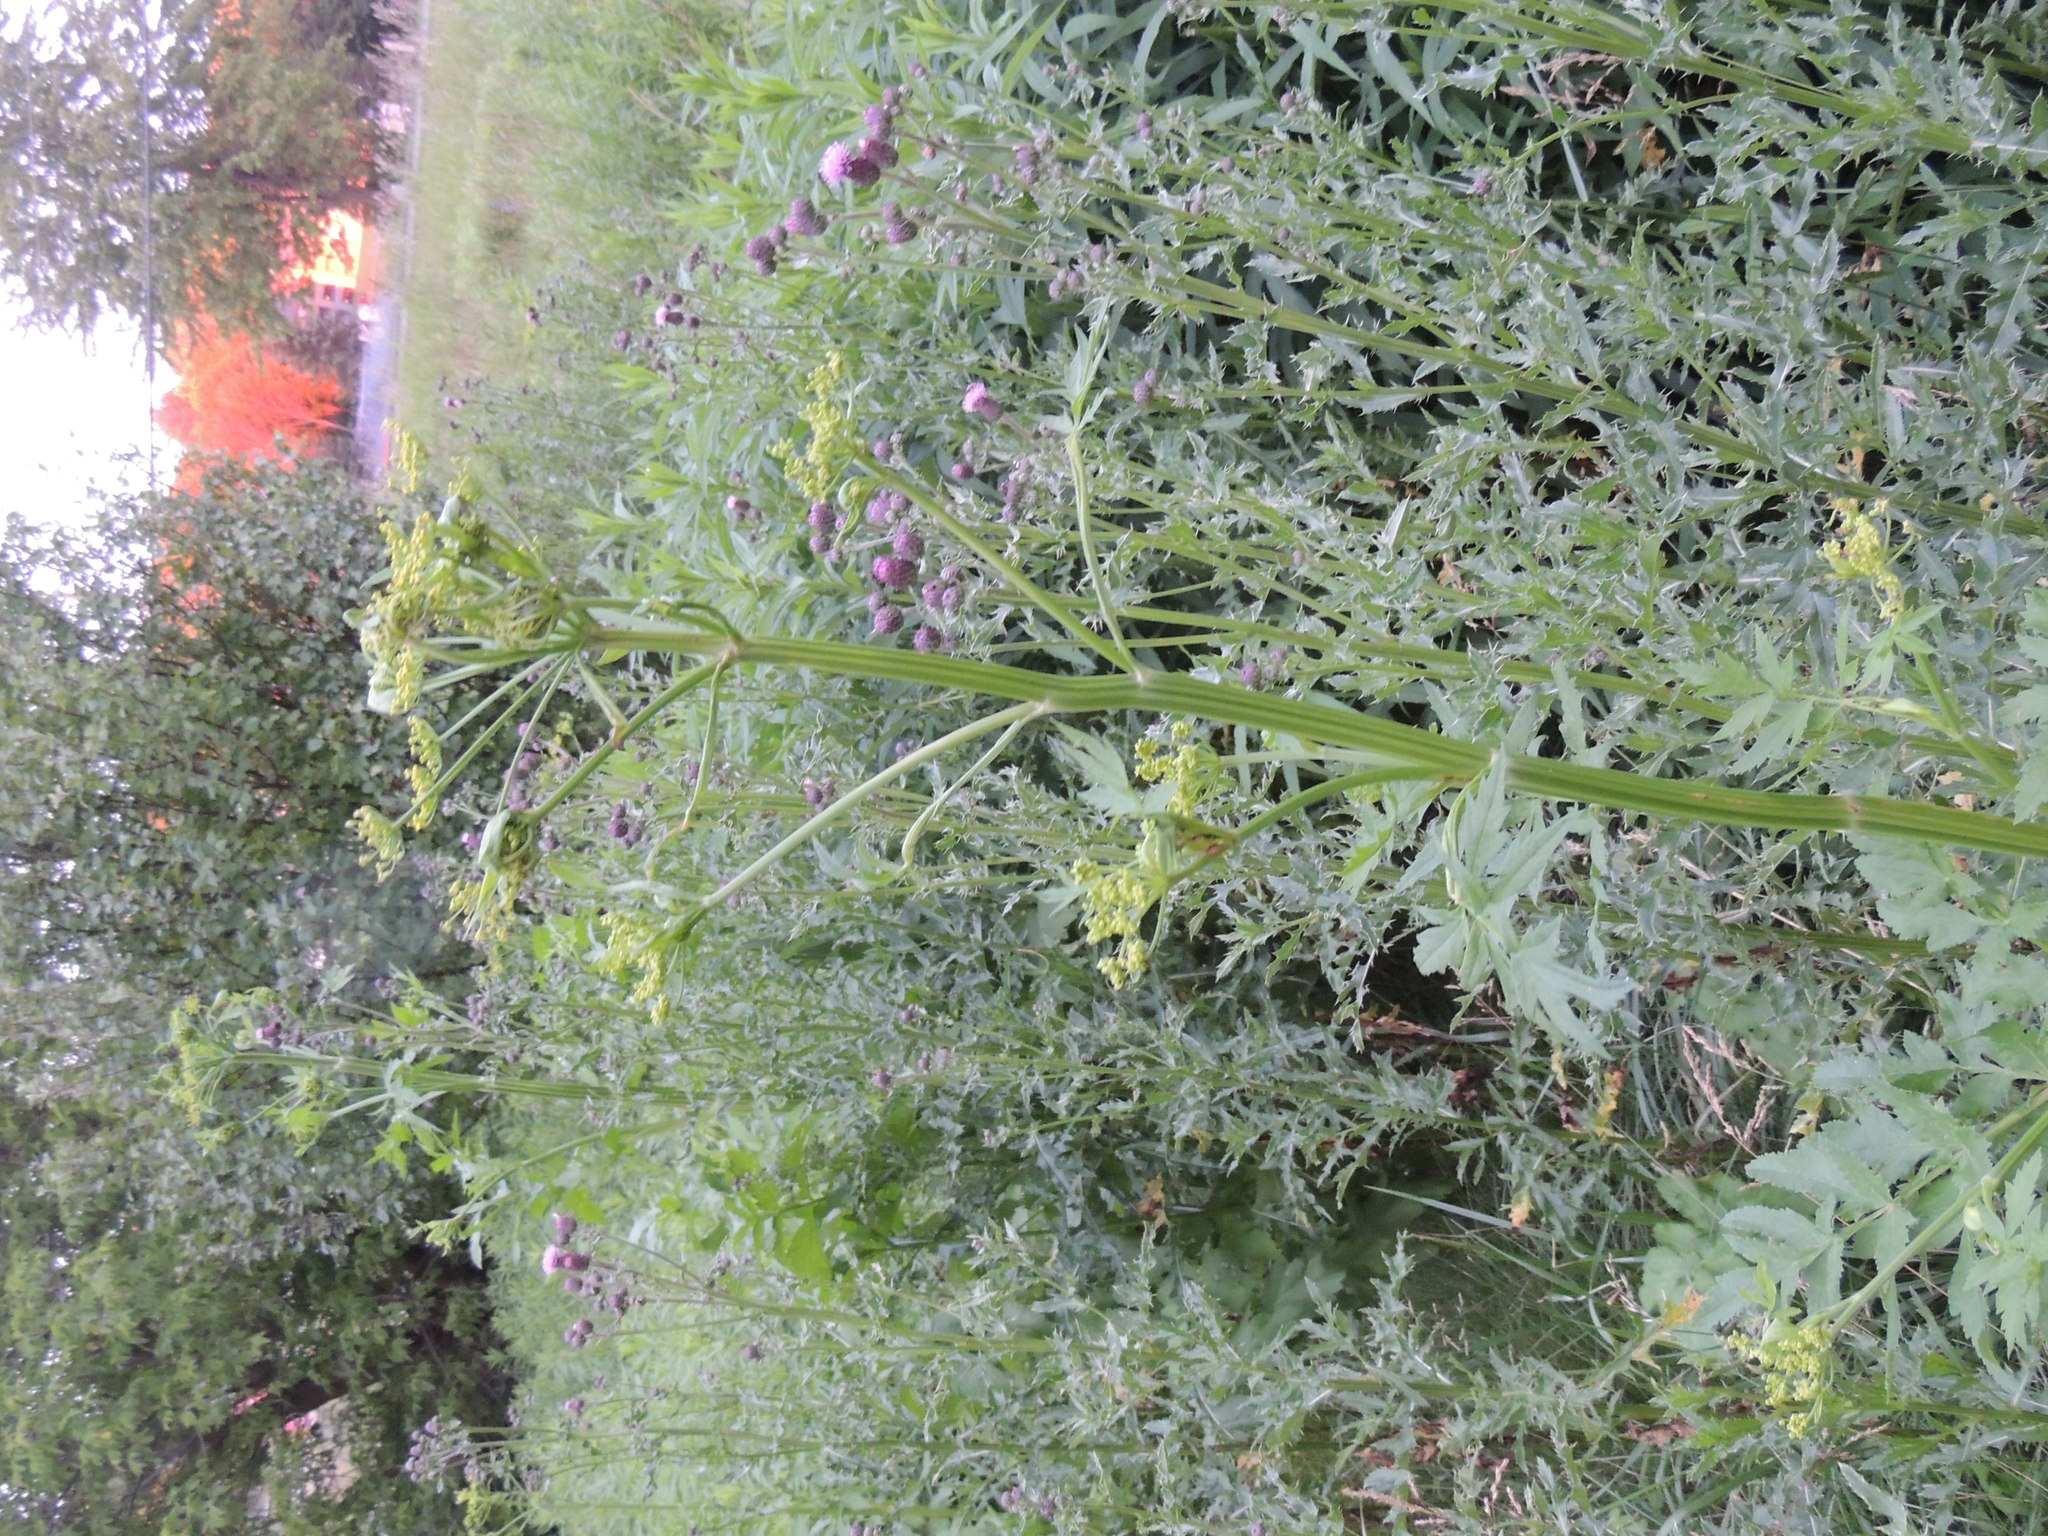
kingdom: Plantae
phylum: Tracheophyta
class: Magnoliopsida
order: Apiales
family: Apiaceae
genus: Pastinaca
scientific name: Pastinaca sativa
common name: Wild parsnip
